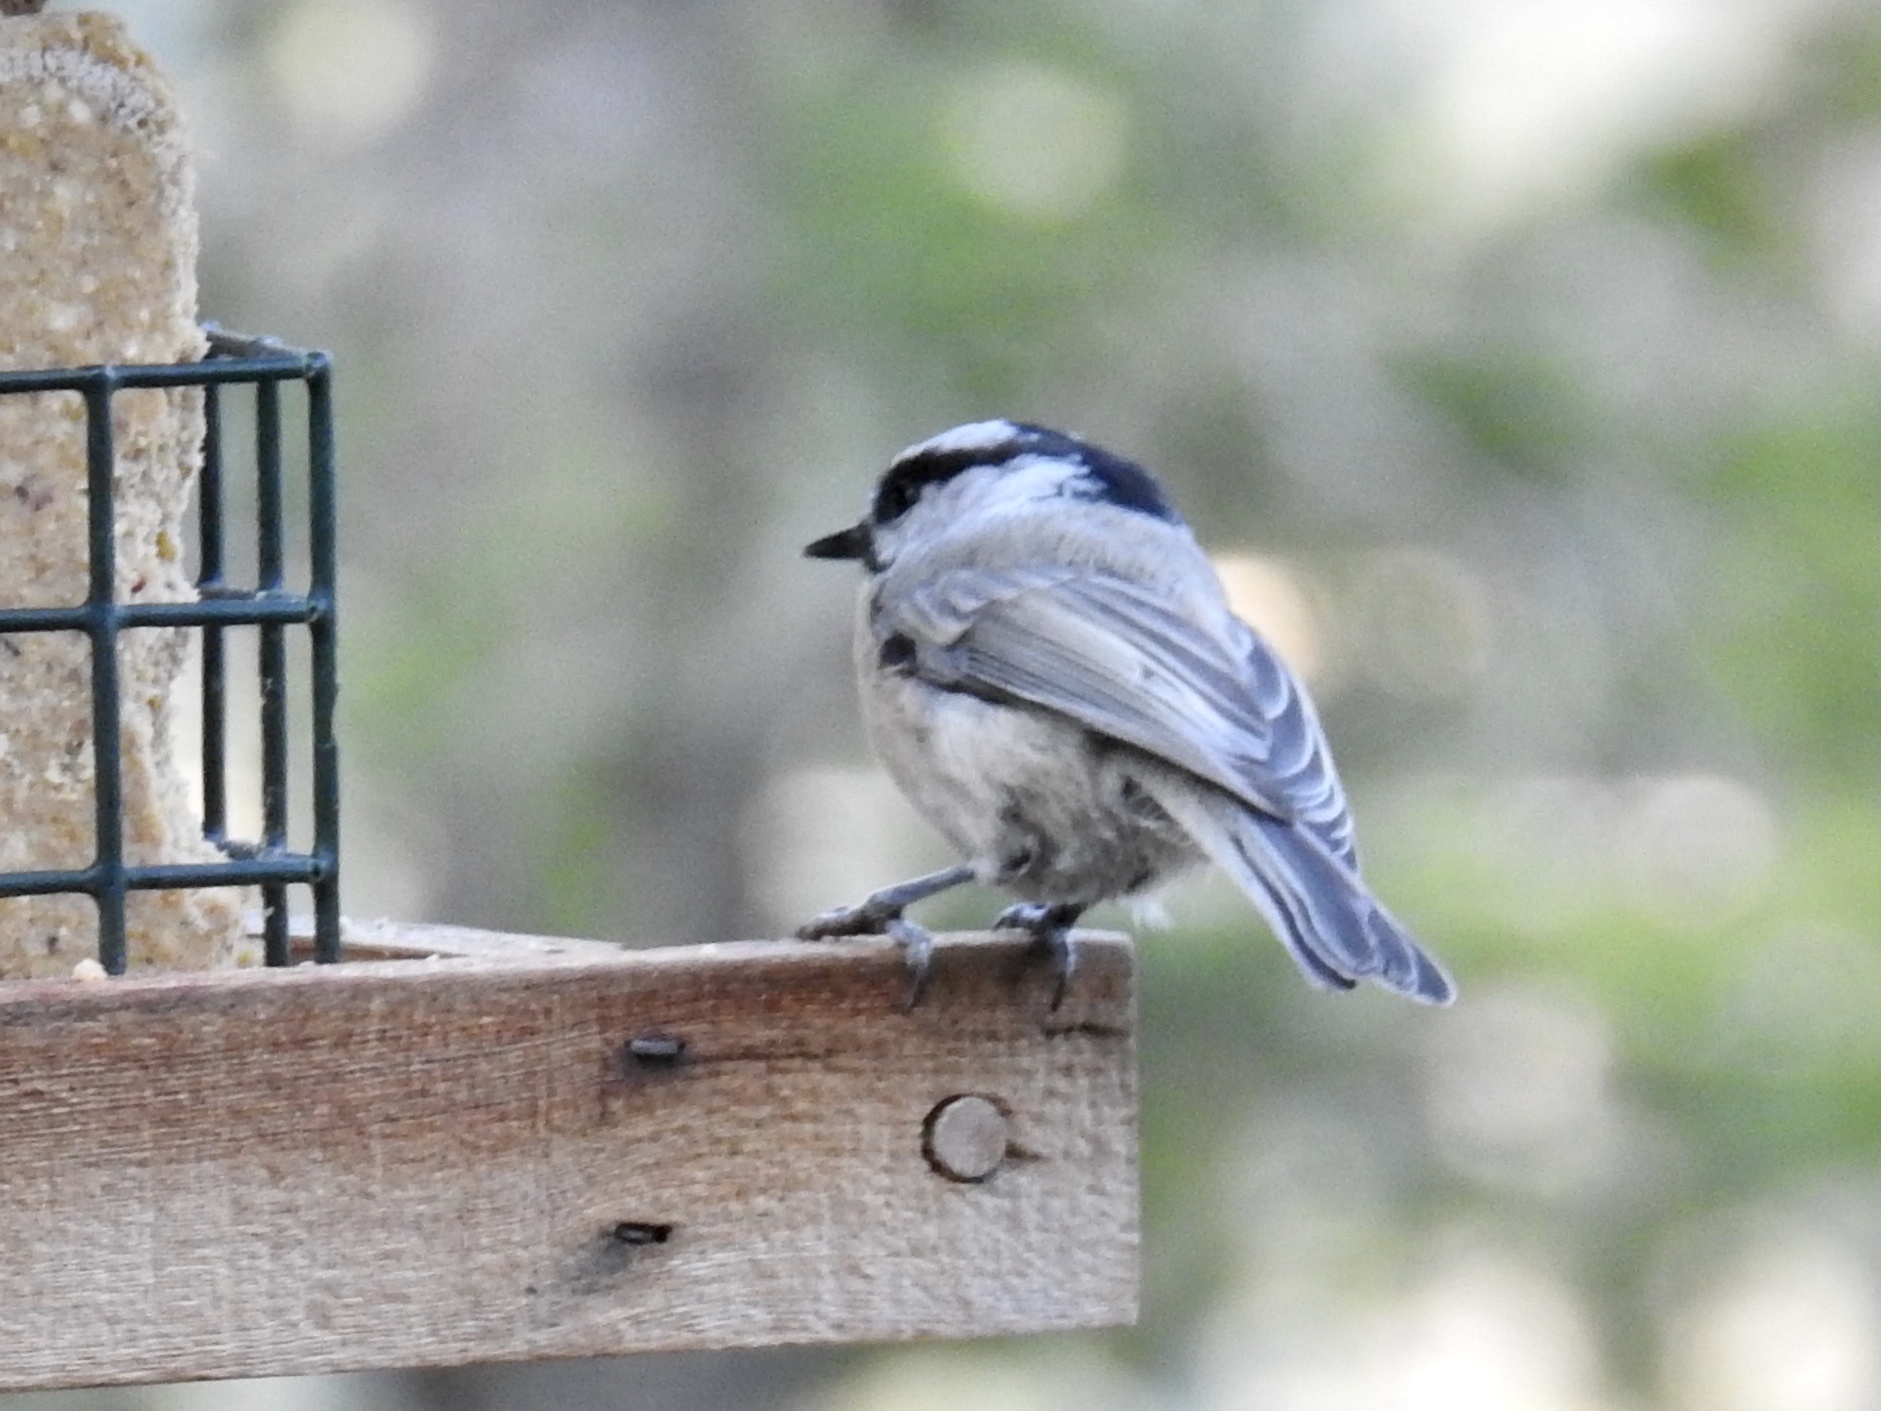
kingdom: Animalia
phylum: Chordata
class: Aves
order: Passeriformes
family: Paridae
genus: Poecile
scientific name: Poecile gambeli
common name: Mountain chickadee
